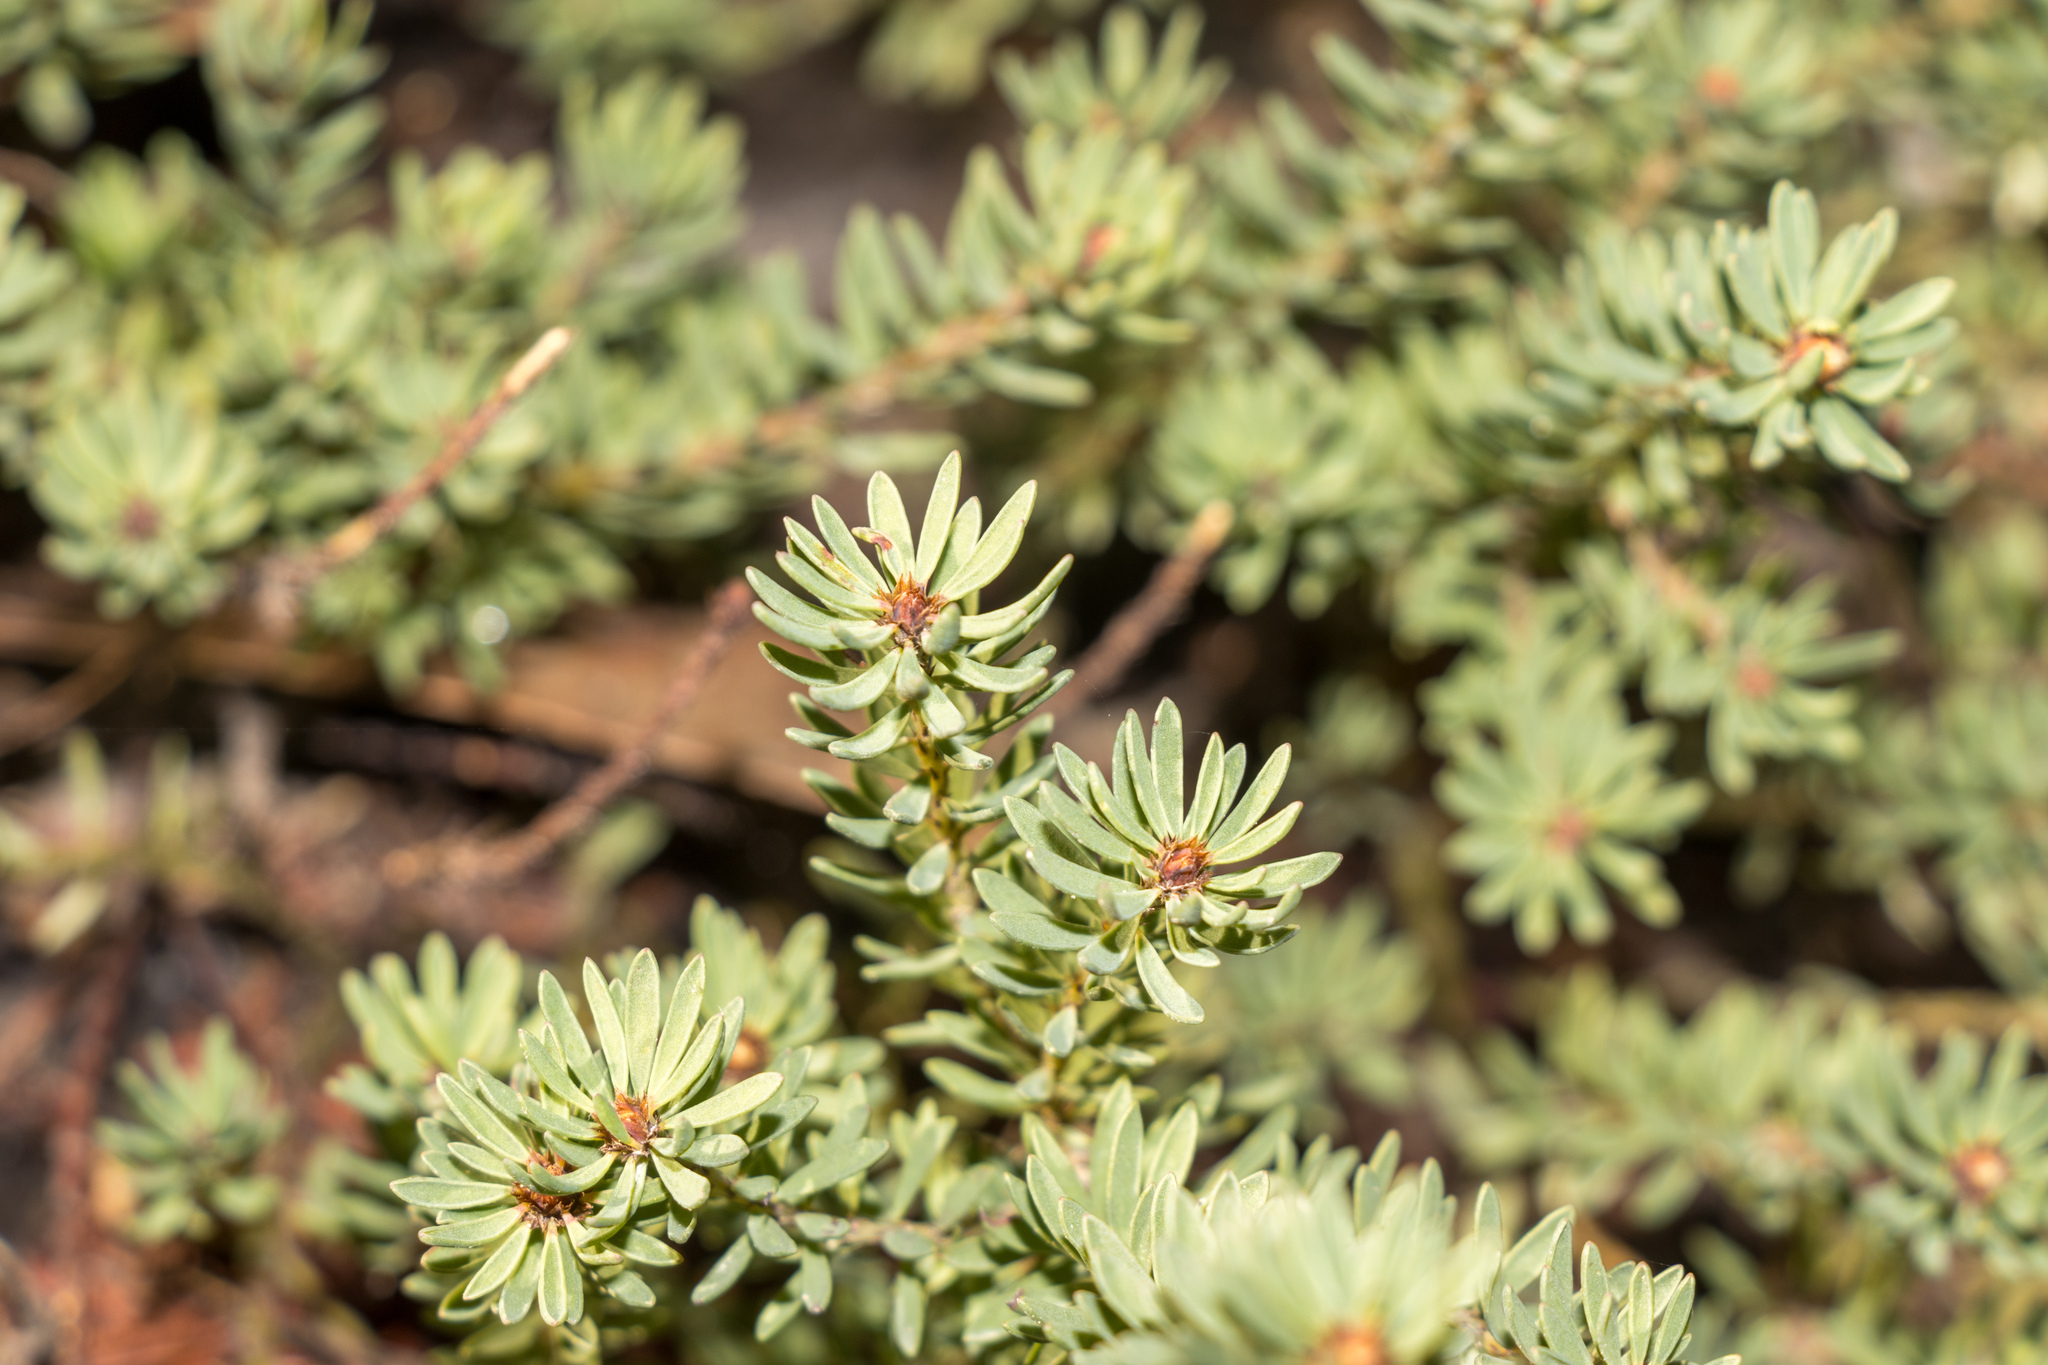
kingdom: Plantae
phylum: Tracheophyta
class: Magnoliopsida
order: Fabales
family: Fabaceae
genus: Pultenaea
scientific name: Pultenaea humilis
